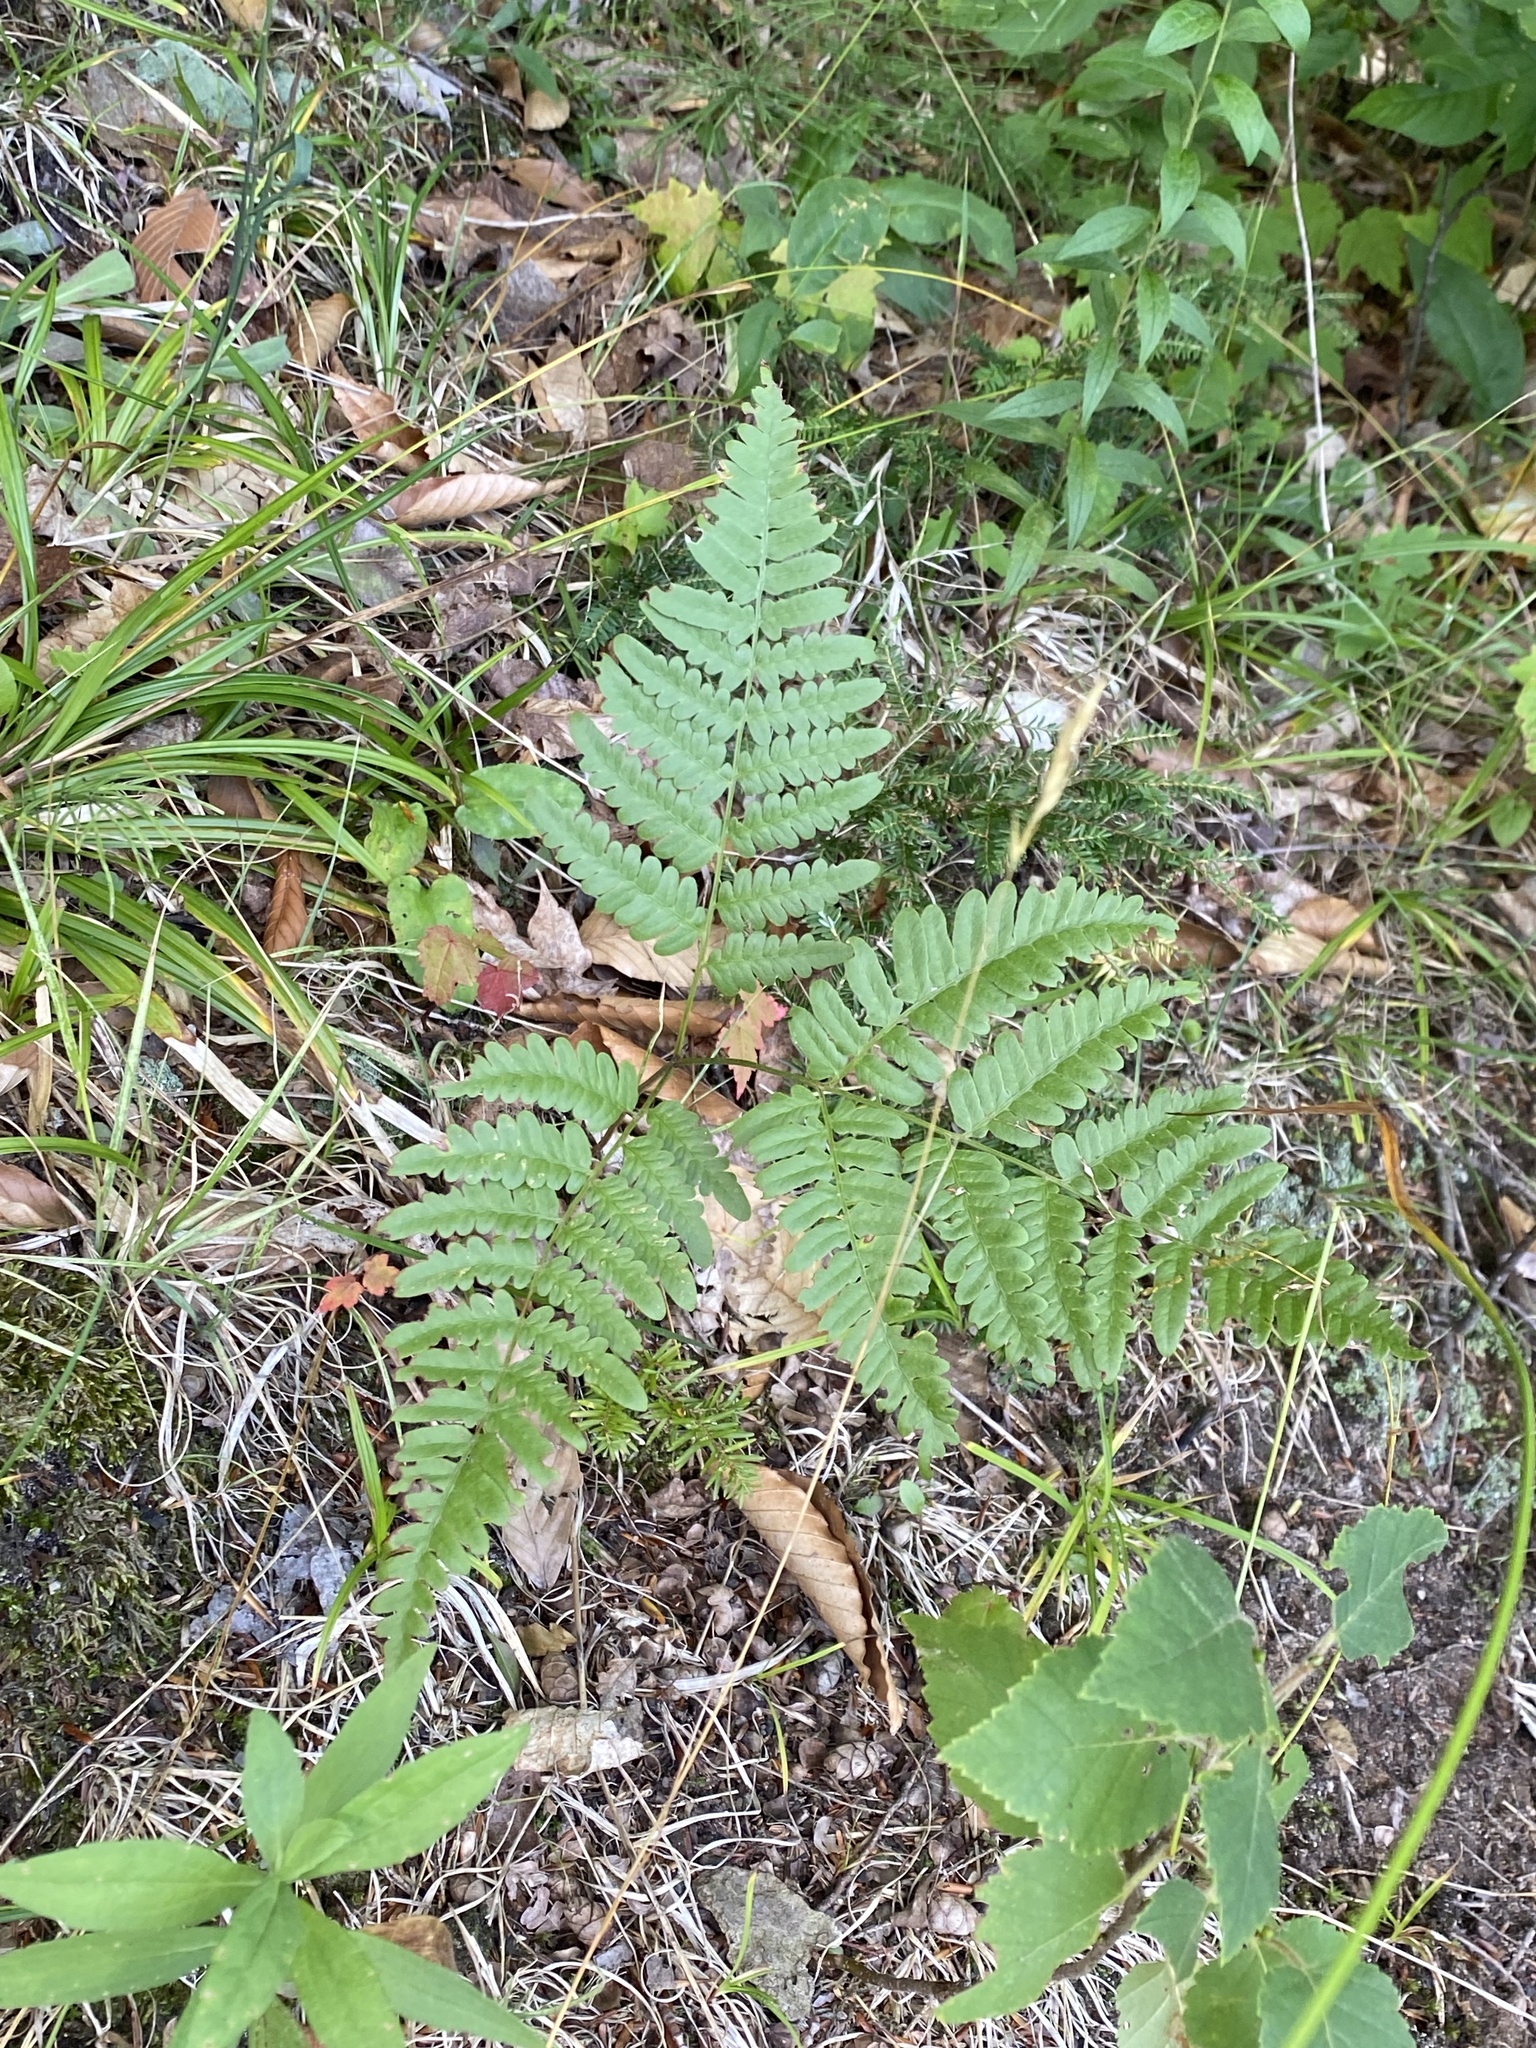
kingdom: Plantae
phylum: Tracheophyta
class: Polypodiopsida
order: Polypodiales
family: Dennstaedtiaceae
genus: Pteridium
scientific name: Pteridium aquilinum
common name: Bracken
